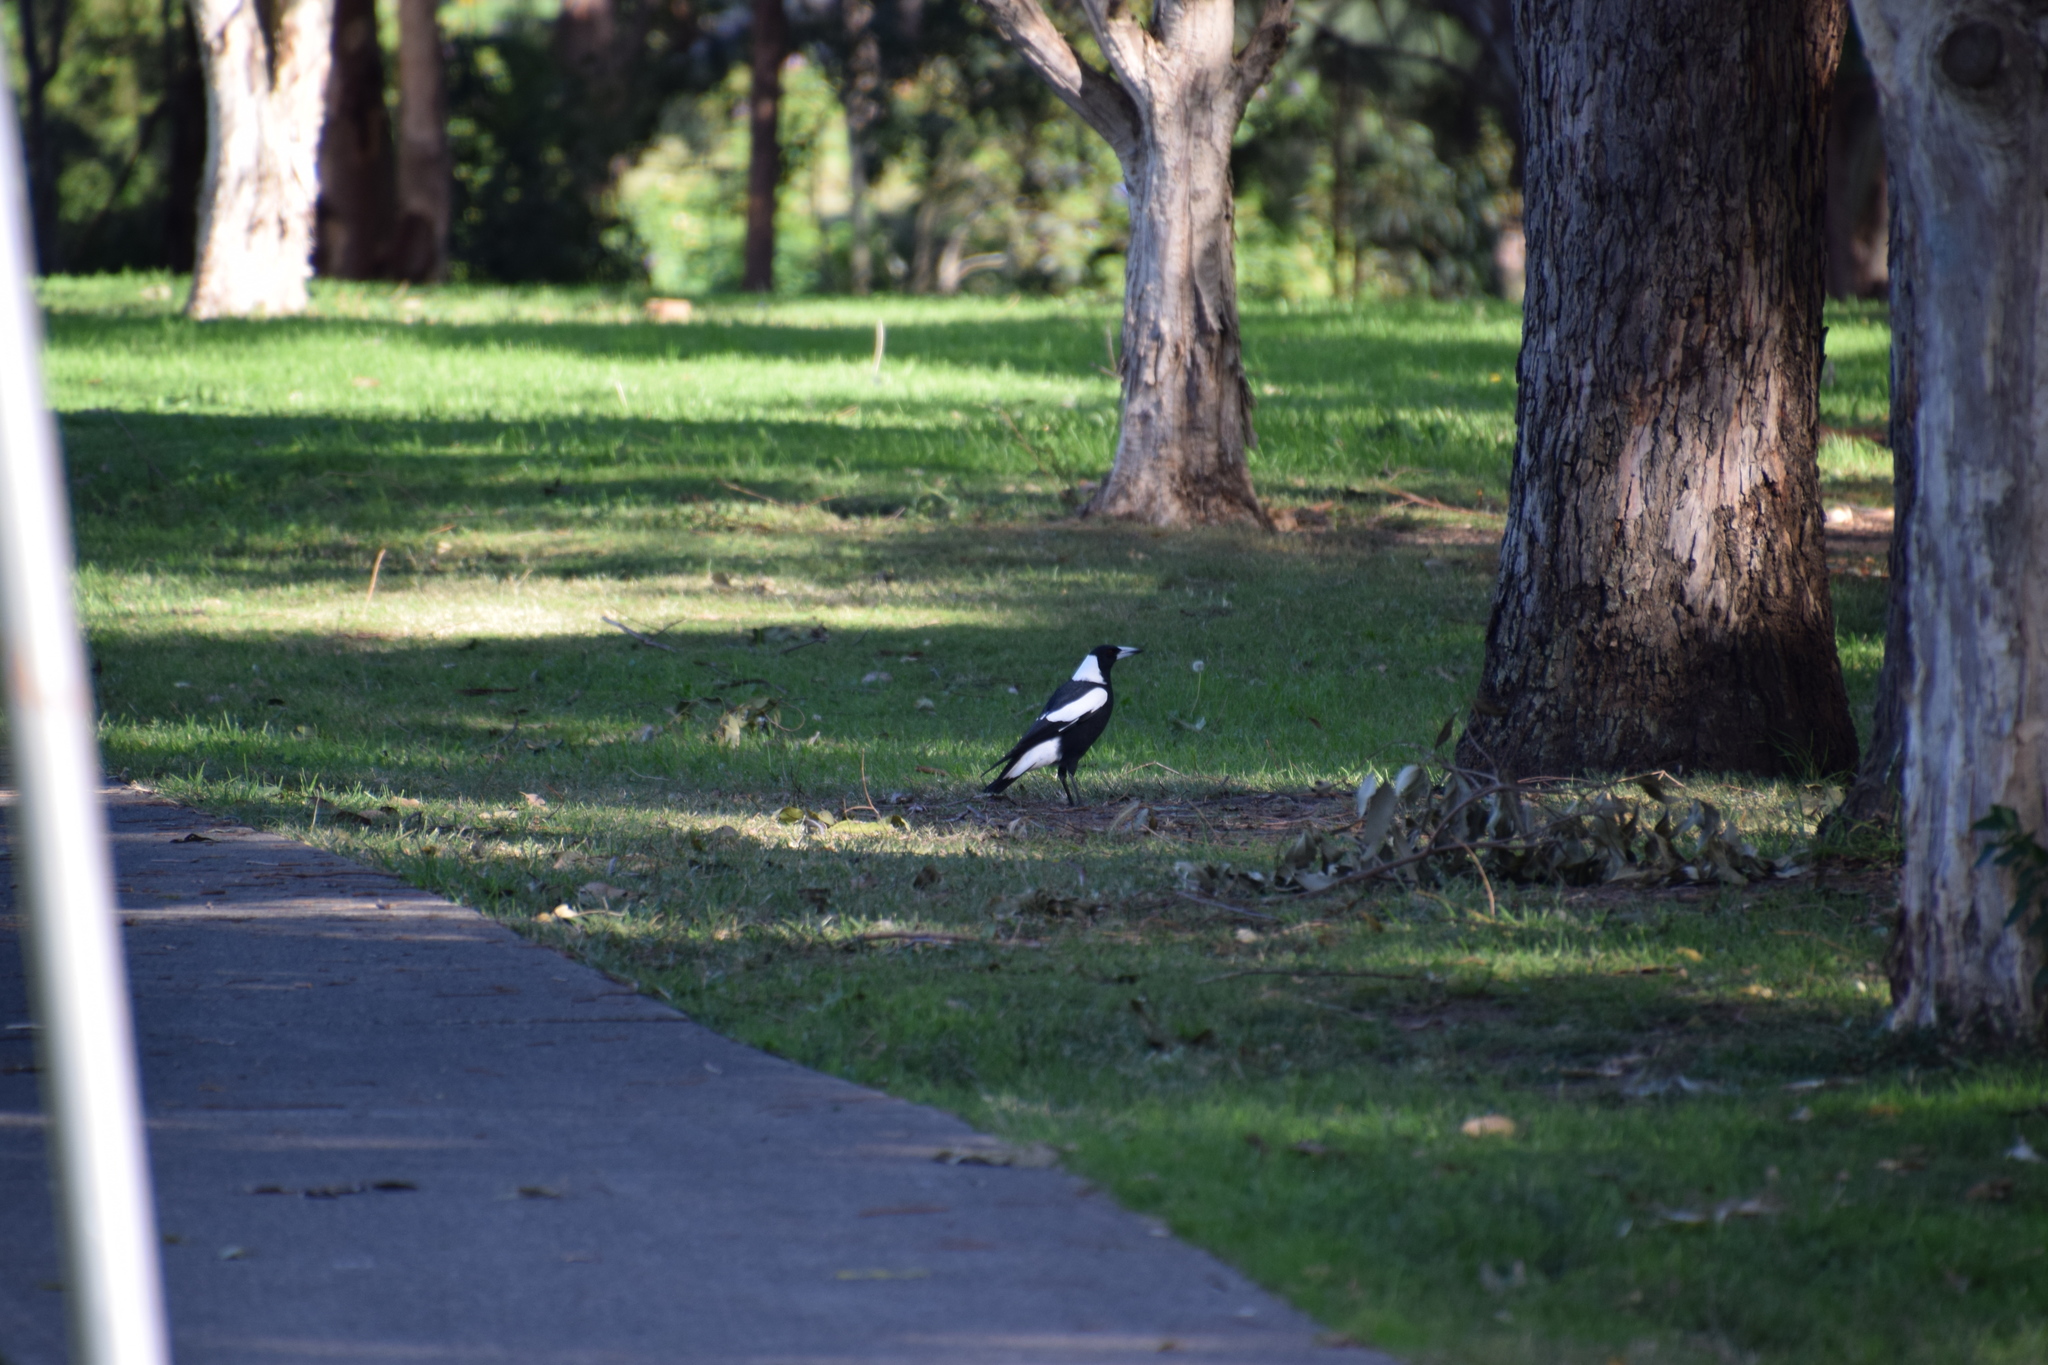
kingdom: Animalia
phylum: Chordata
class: Aves
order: Passeriformes
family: Cracticidae
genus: Gymnorhina
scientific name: Gymnorhina tibicen
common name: Australian magpie
